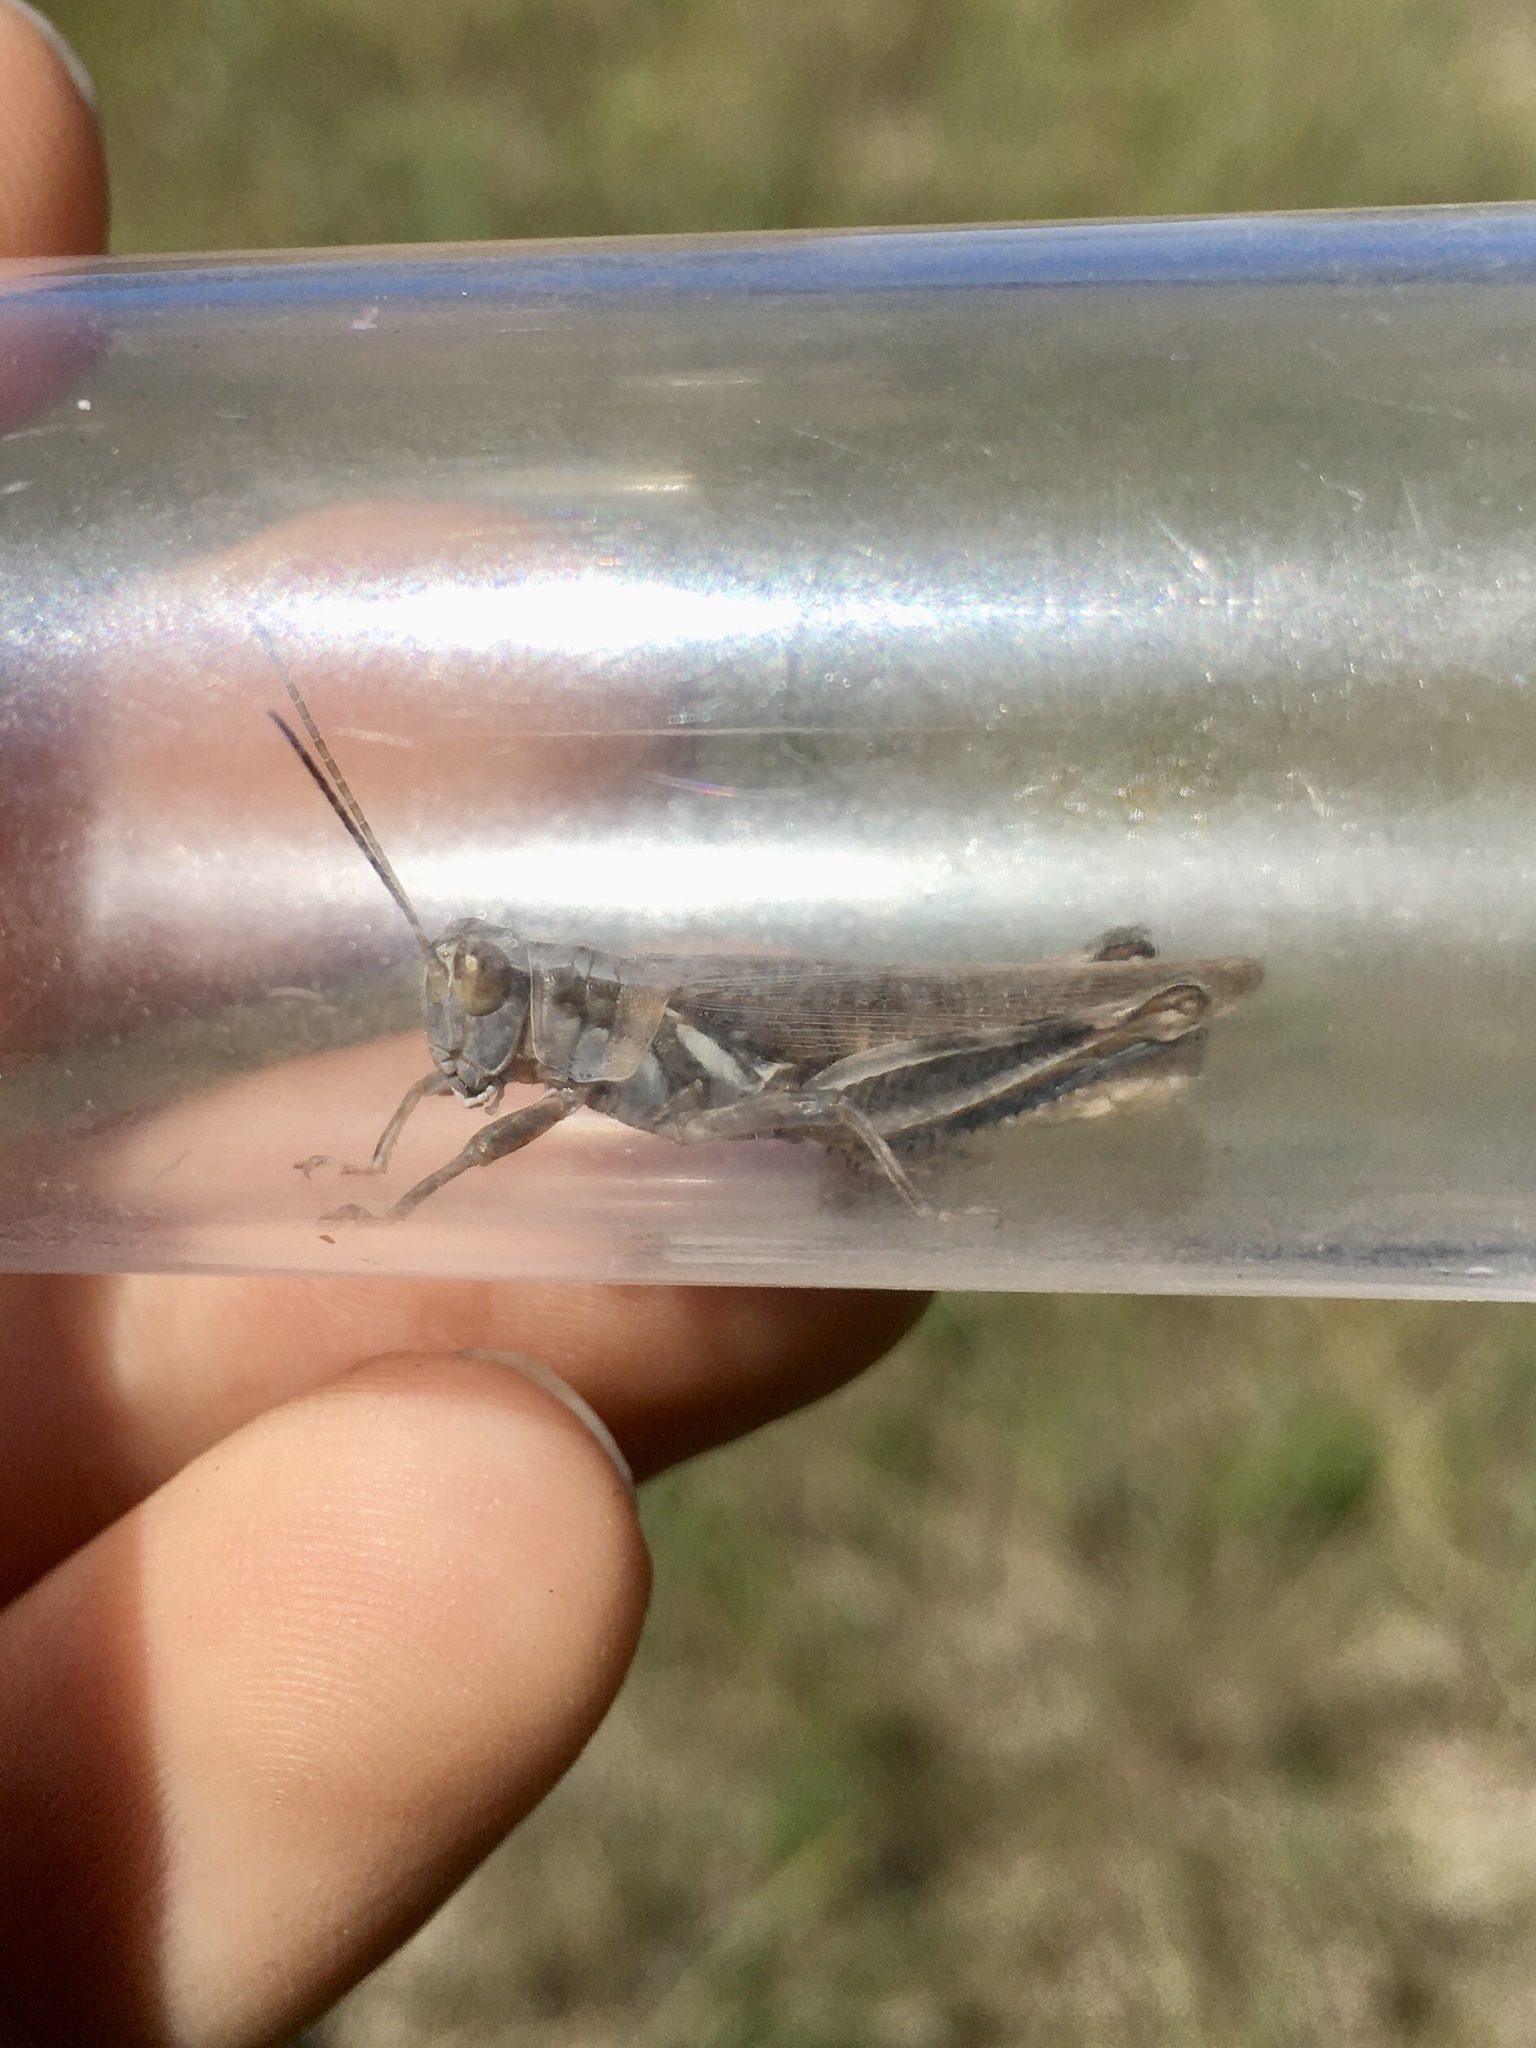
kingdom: Animalia
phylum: Arthropoda
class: Insecta
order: Orthoptera
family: Acrididae
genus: Melanoplus
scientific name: Melanoplus flavidus
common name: Blue-legged locust
